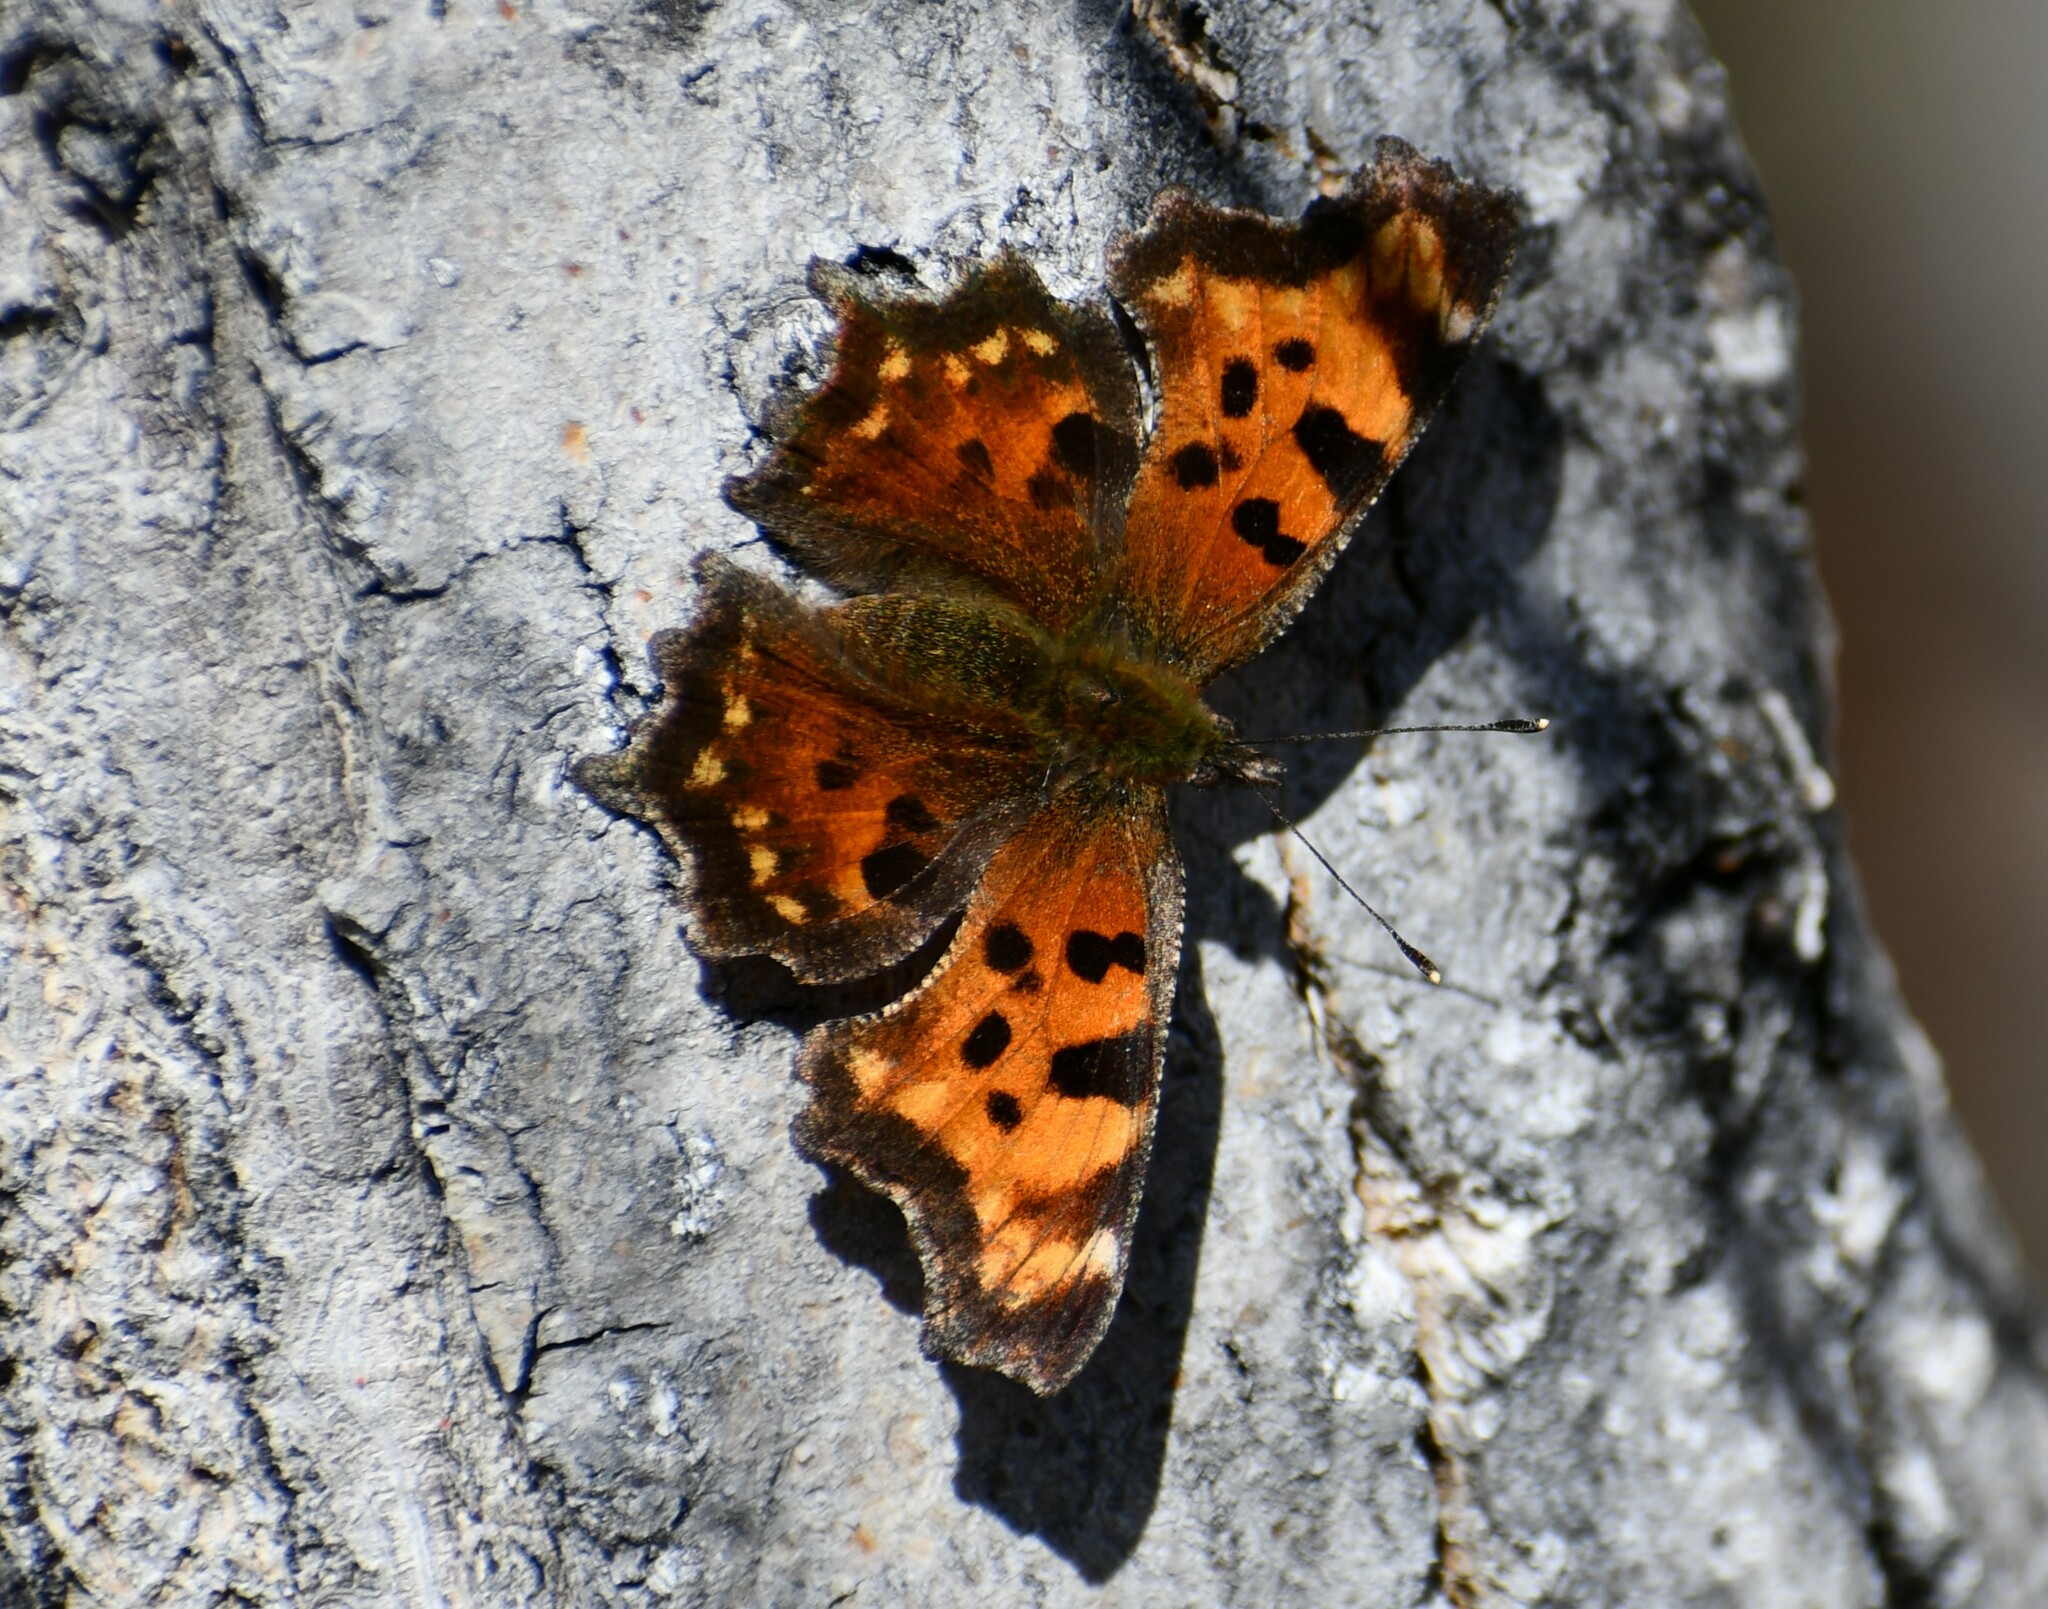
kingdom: Animalia
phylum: Arthropoda
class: Insecta
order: Lepidoptera
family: Nymphalidae
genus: Polygonia
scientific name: Polygonia faunus
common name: Green comma
